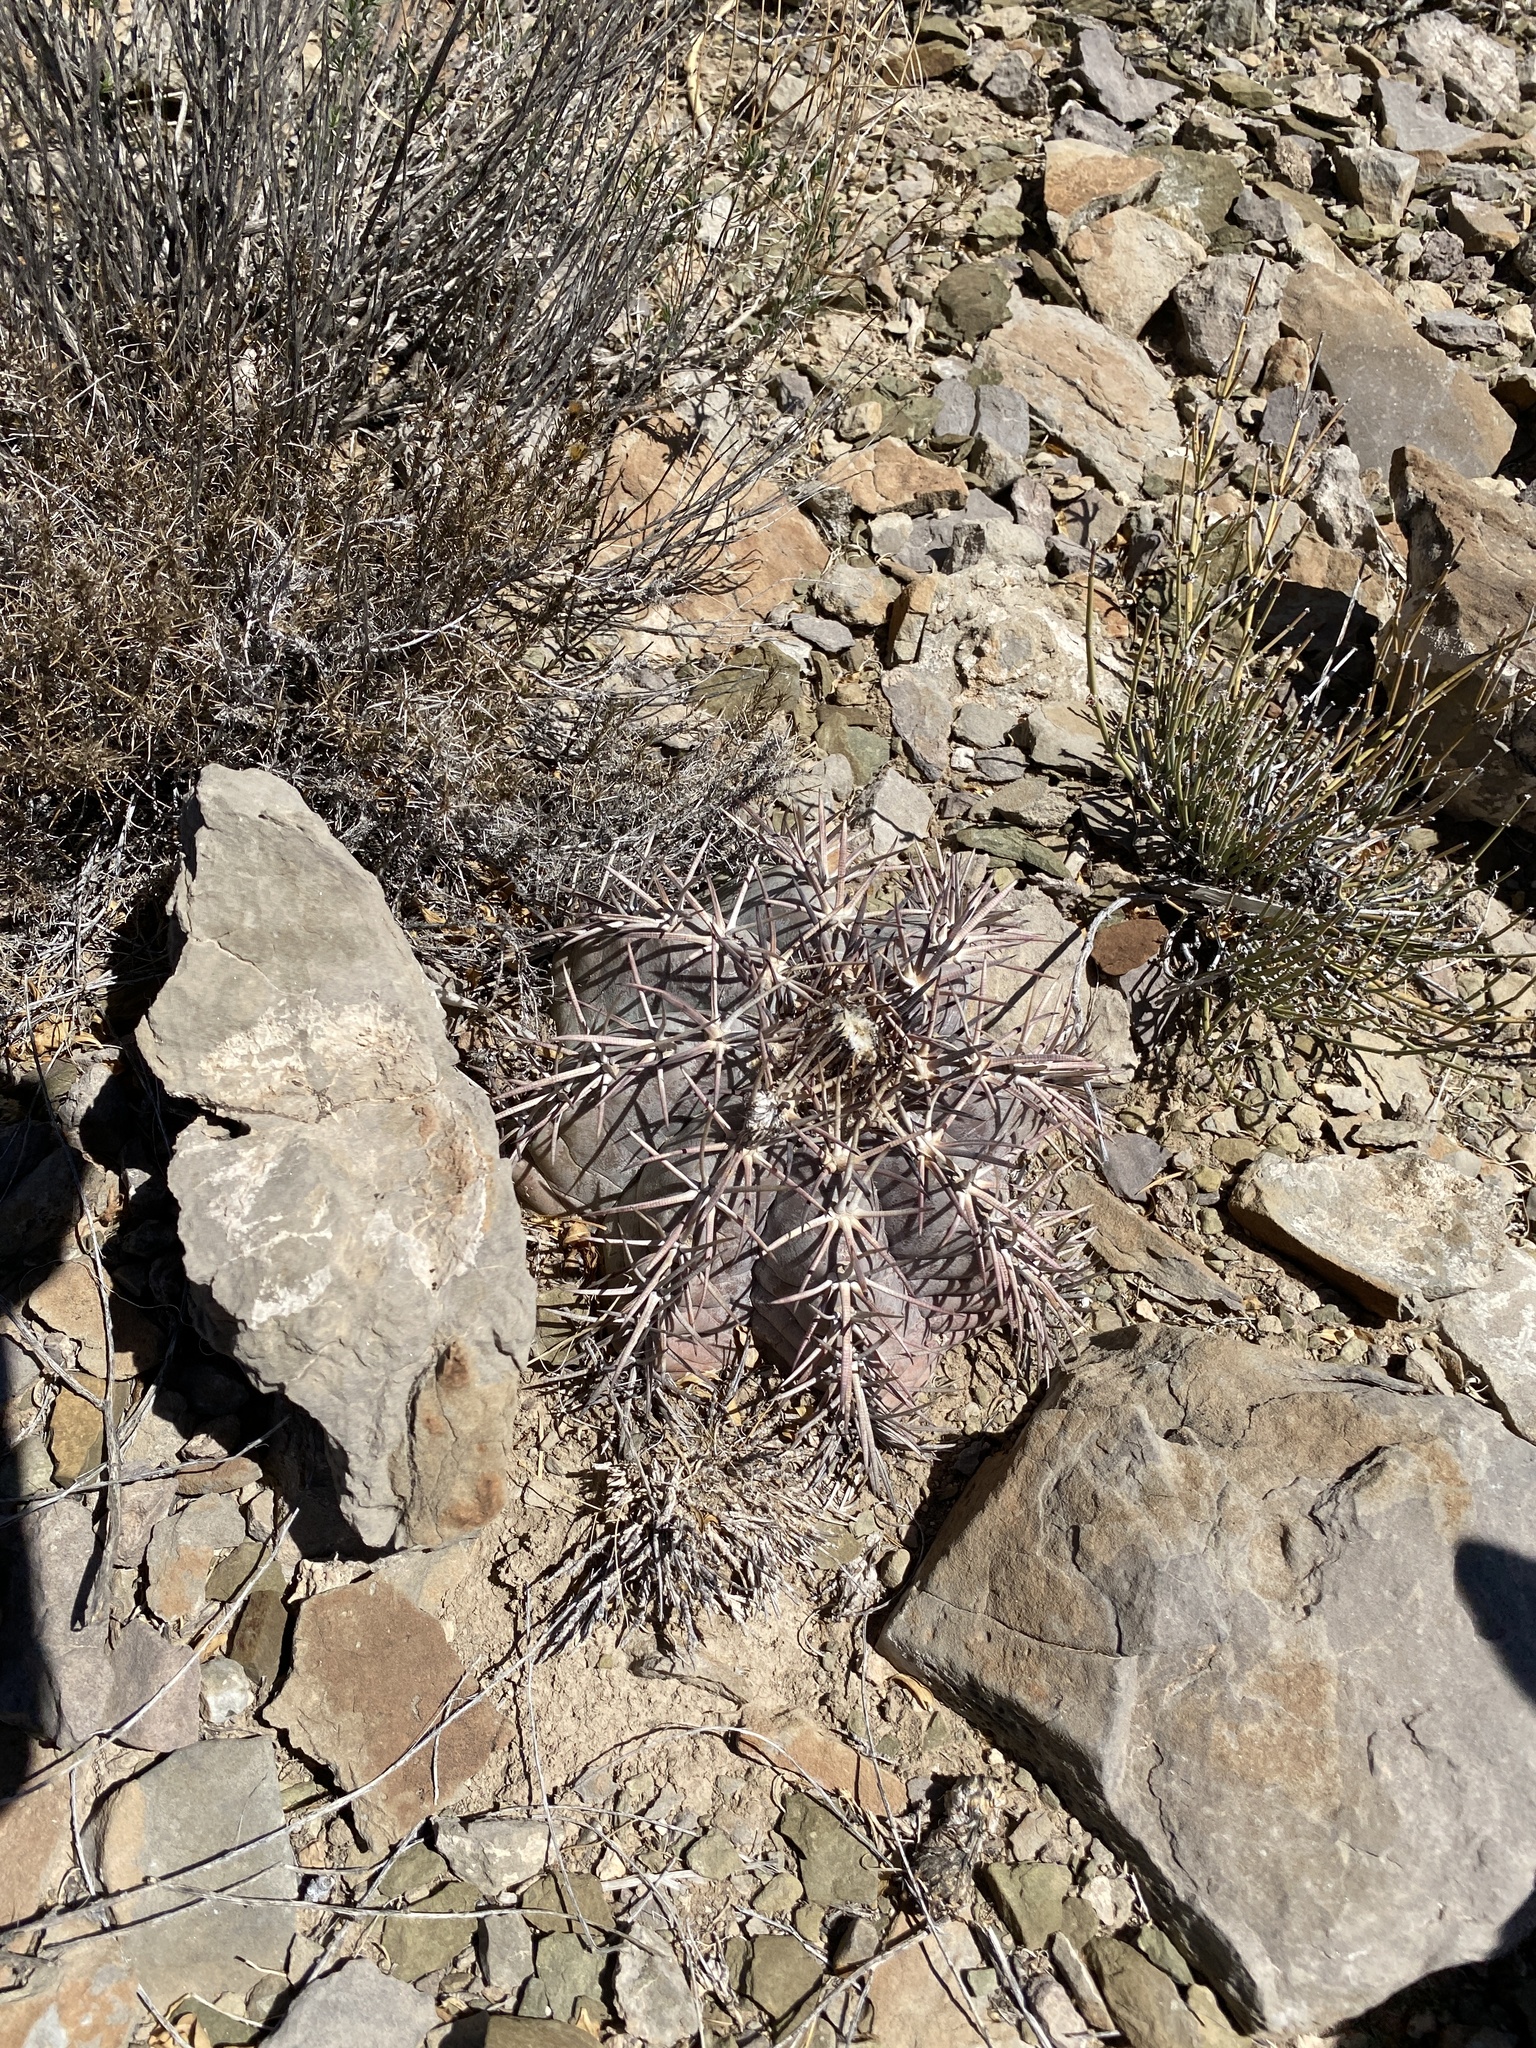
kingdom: Plantae
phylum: Tracheophyta
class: Magnoliopsida
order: Caryophyllales
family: Cactaceae
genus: Echinocactus
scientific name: Echinocactus horizonthalonius
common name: Devilshead
